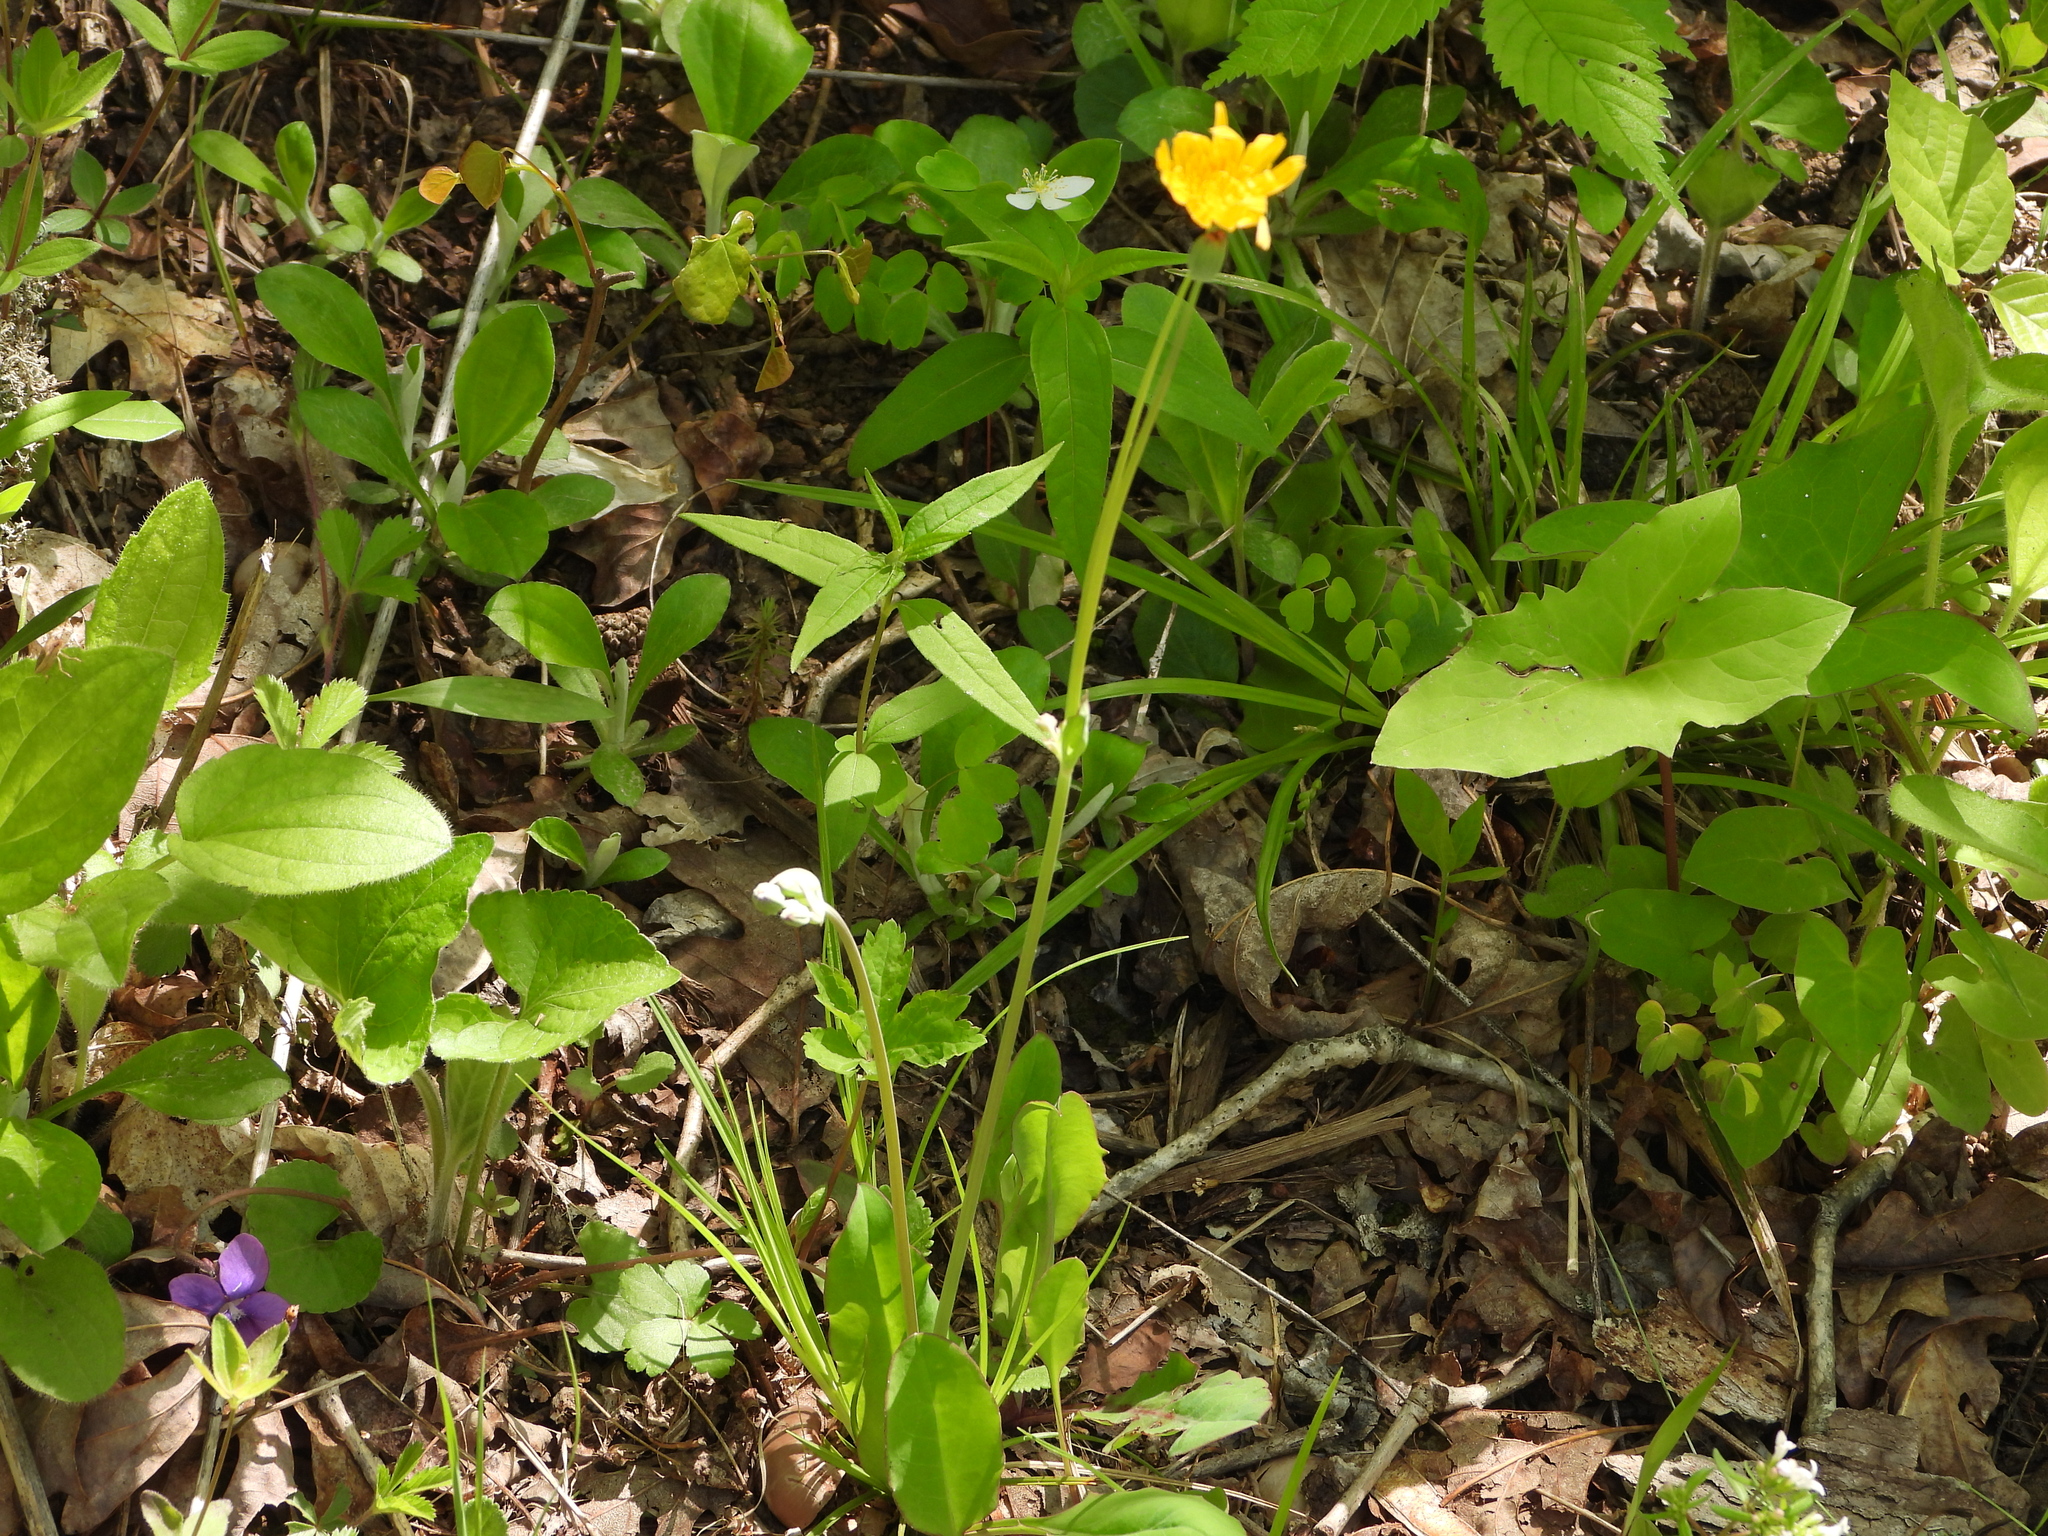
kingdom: Plantae
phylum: Tracheophyta
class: Magnoliopsida
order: Asterales
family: Asteraceae
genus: Krigia
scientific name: Krigia biflora
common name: Orange dwarf-dandelion
